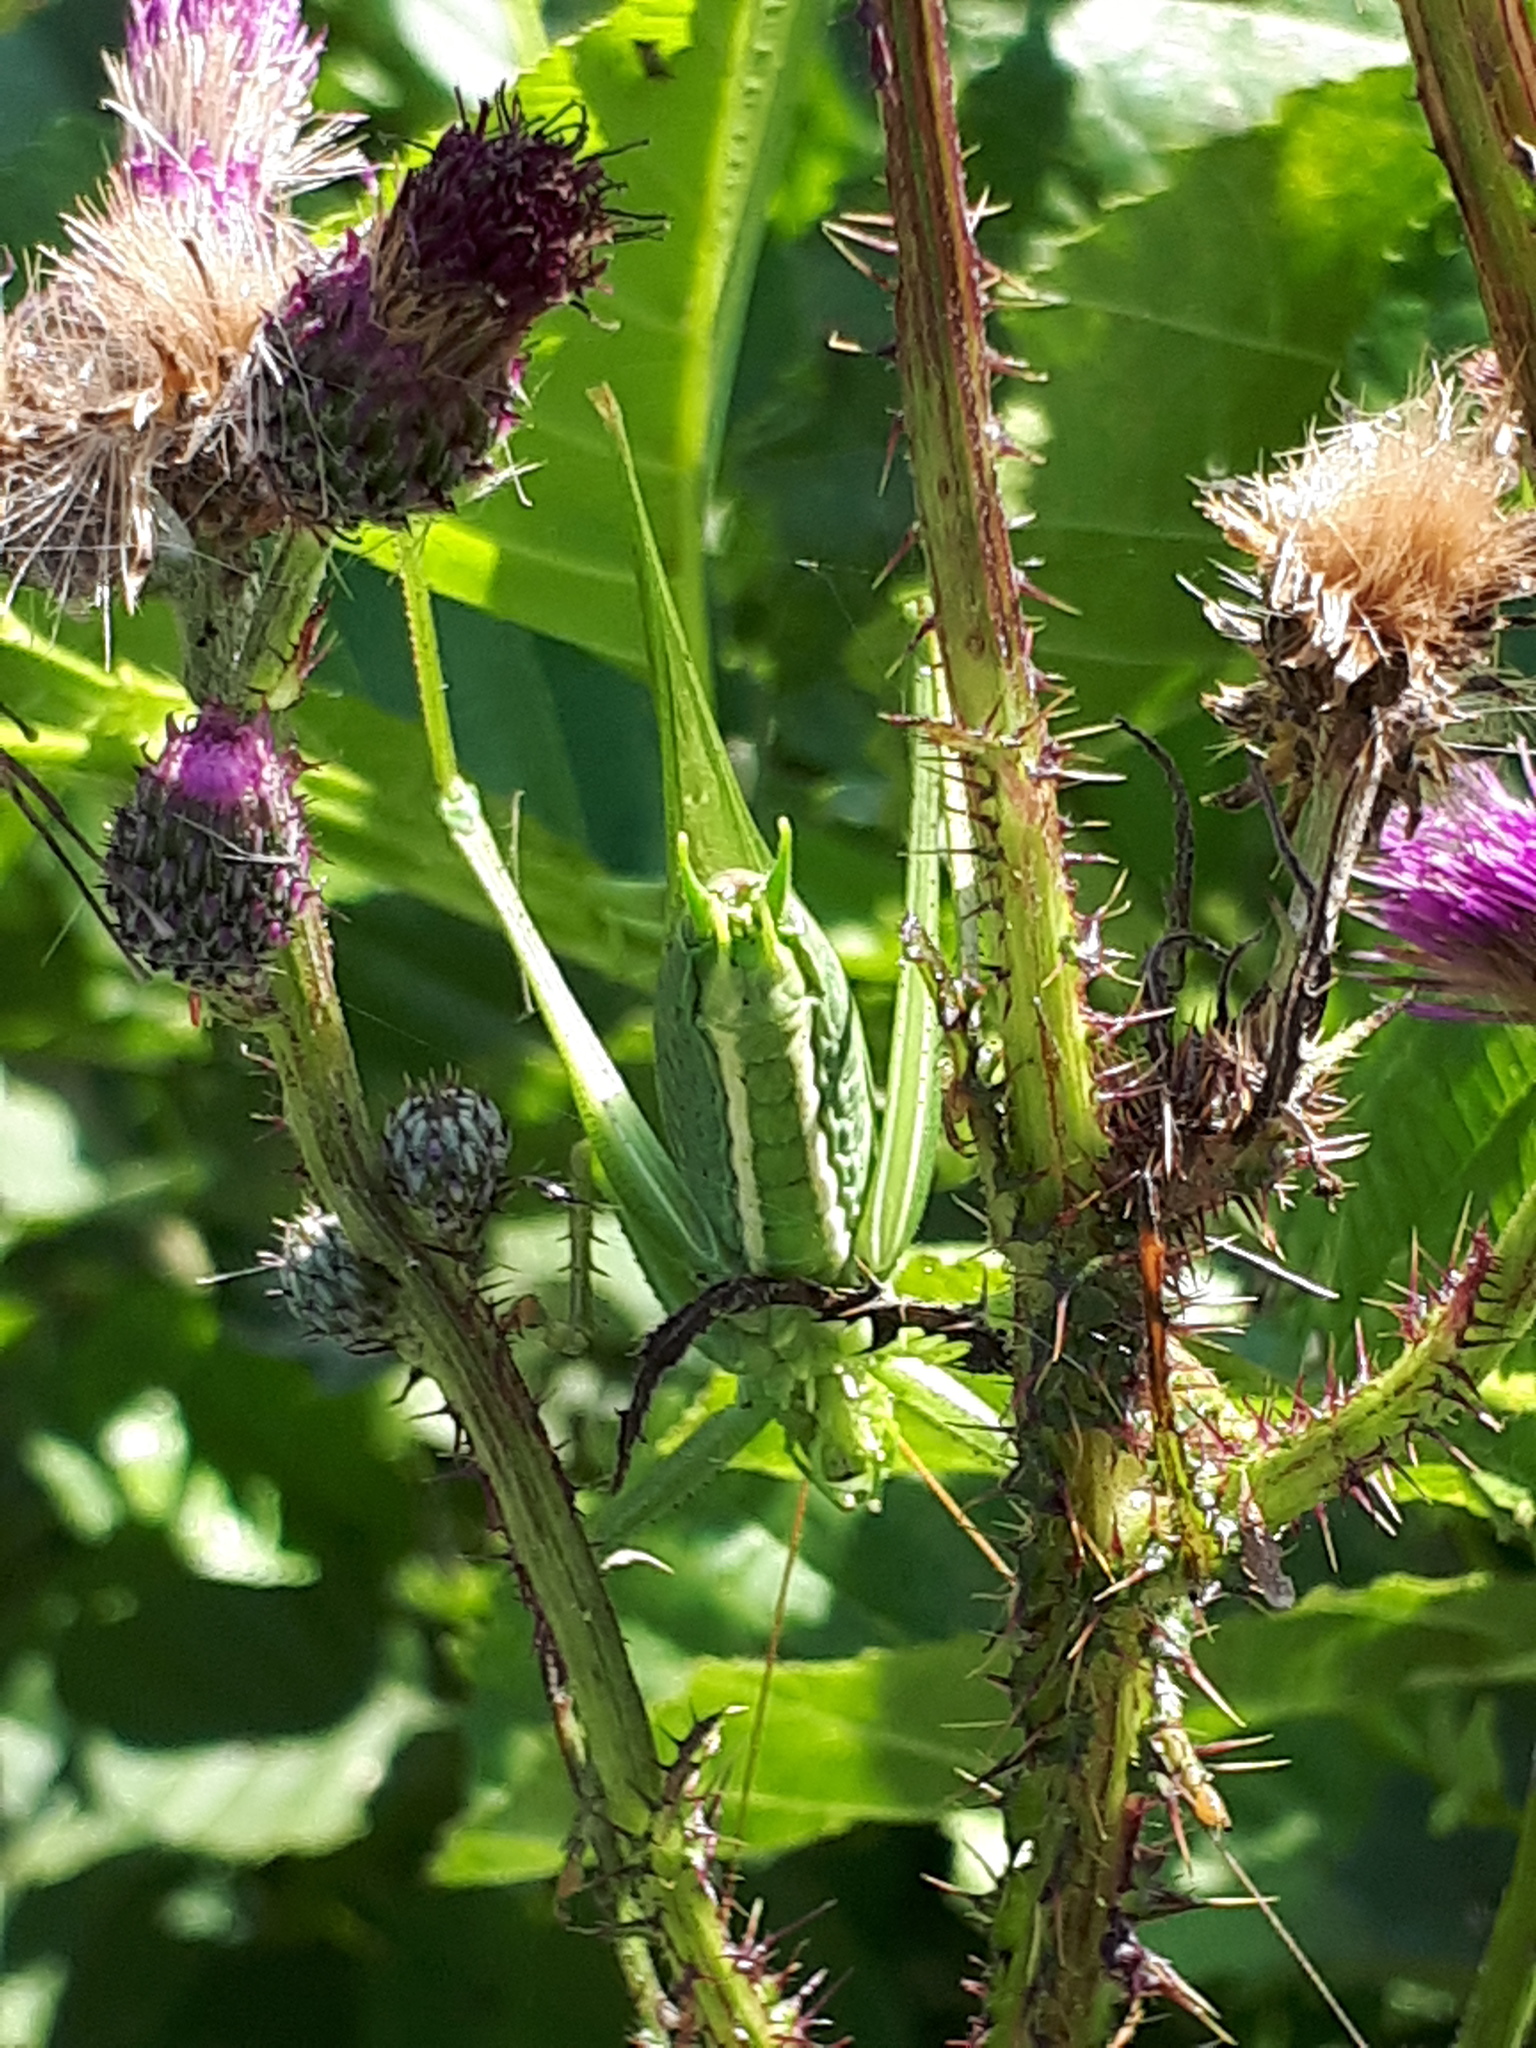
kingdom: Animalia
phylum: Arthropoda
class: Insecta
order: Orthoptera
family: Tettigoniidae
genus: Tettigonia
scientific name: Tettigonia viridissima
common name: Great green bush-cricket
